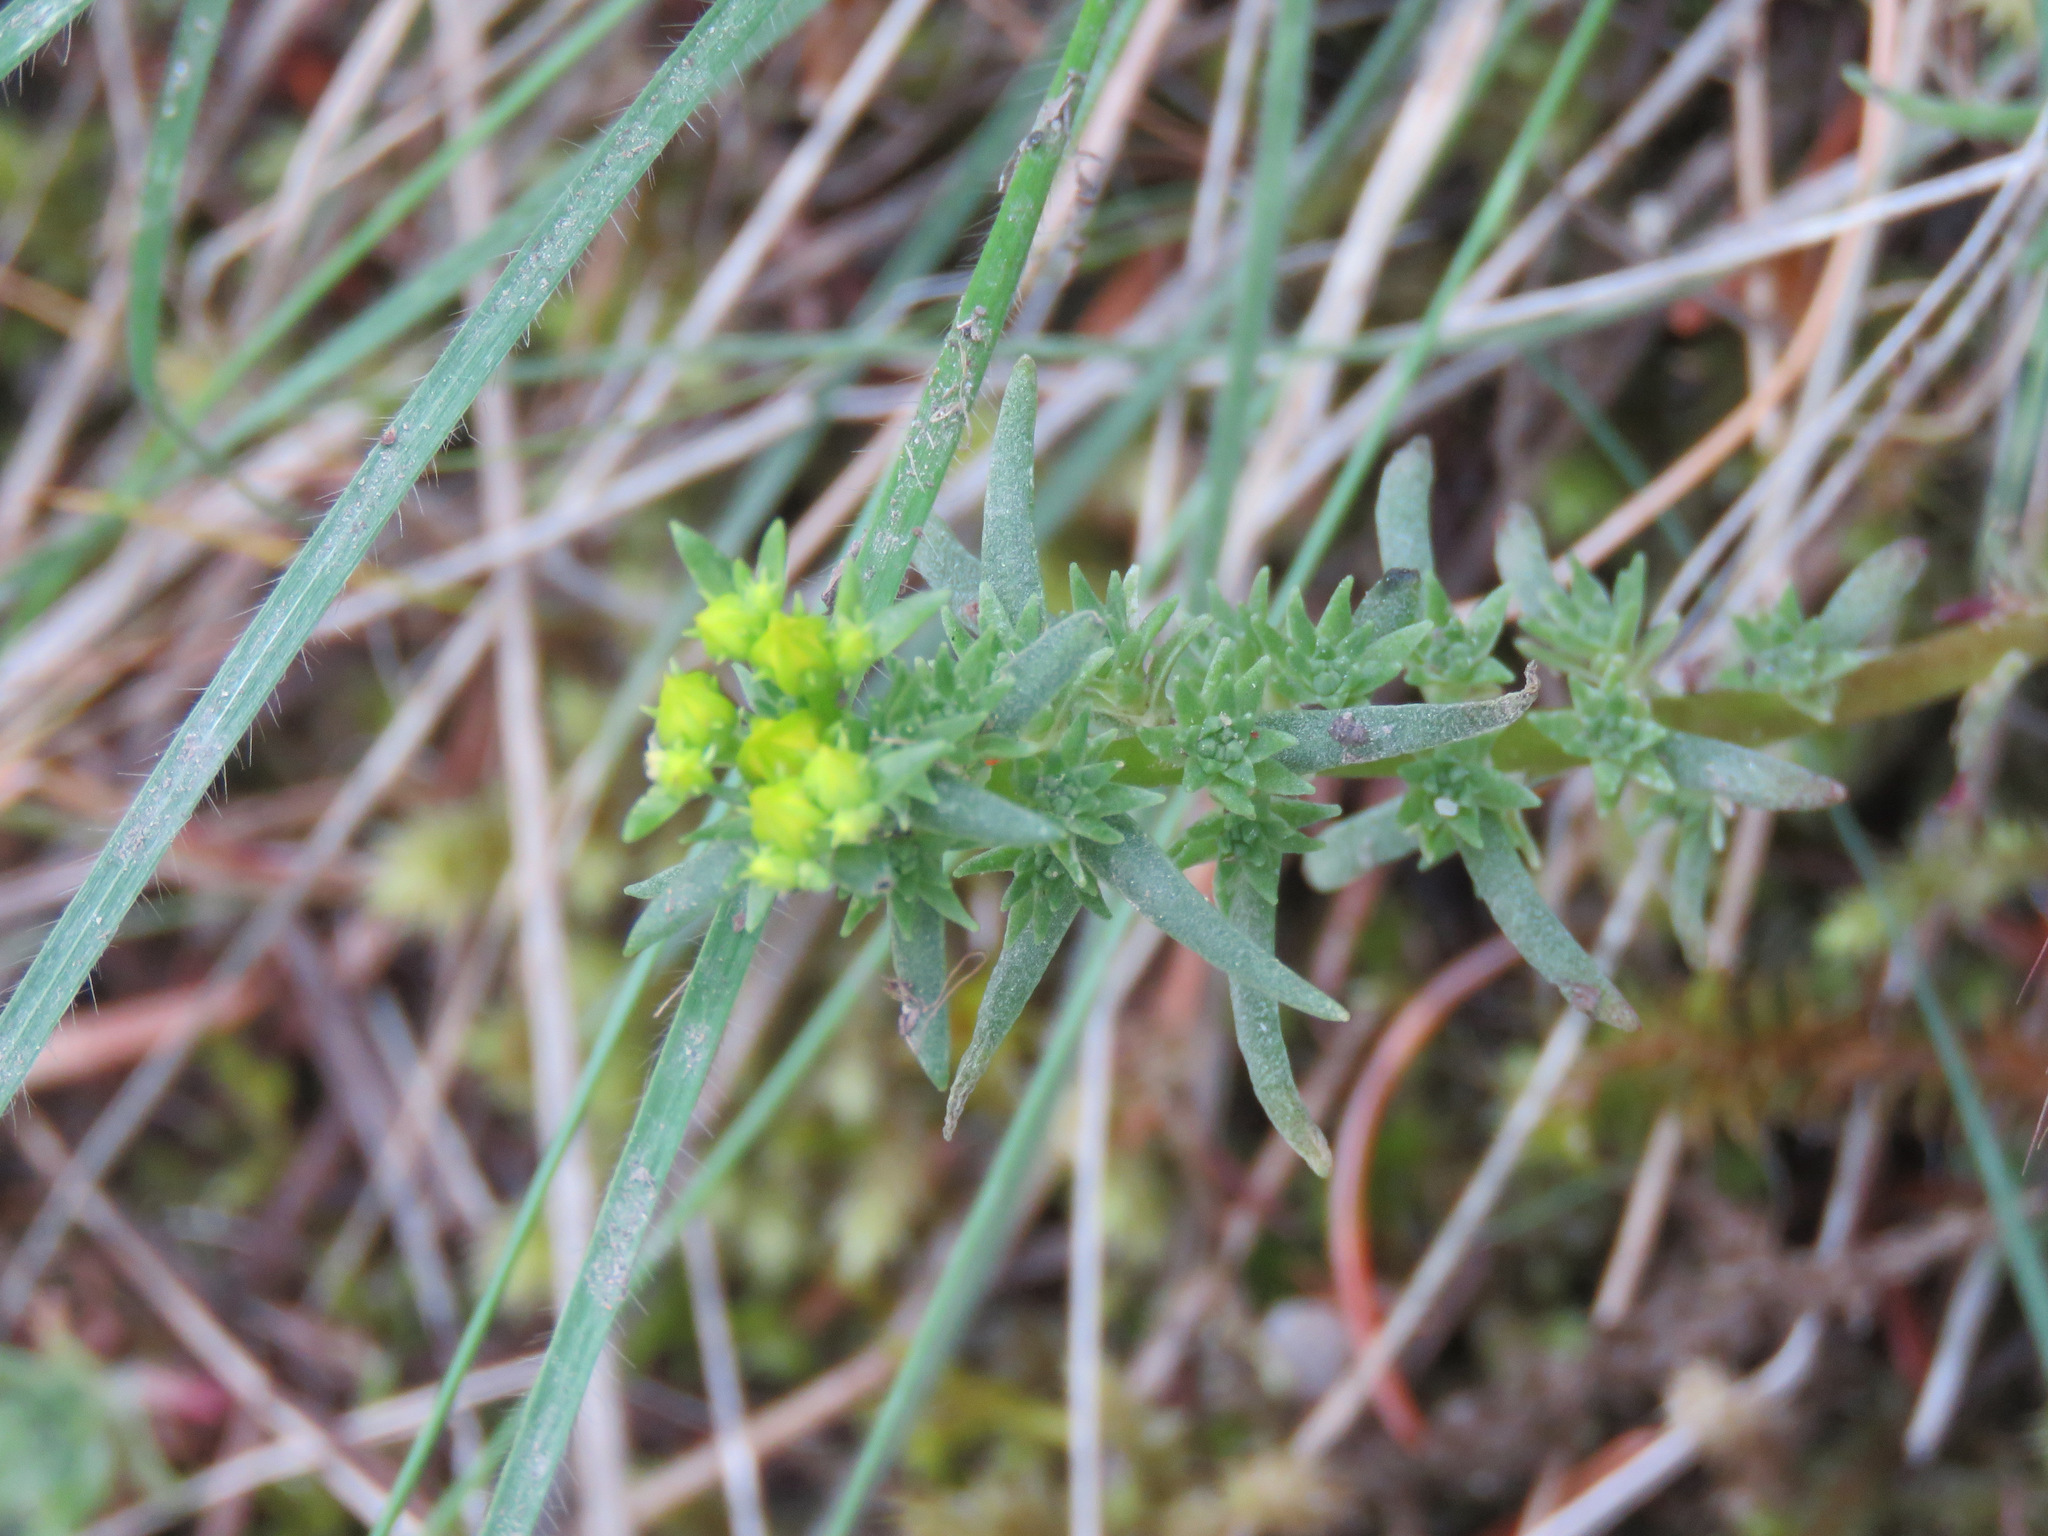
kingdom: Plantae
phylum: Tracheophyta
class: Magnoliopsida
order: Saxifragales
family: Crassulaceae
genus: Sedum
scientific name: Sedum stenopetalum
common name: Narrow-petaled stonecrop
